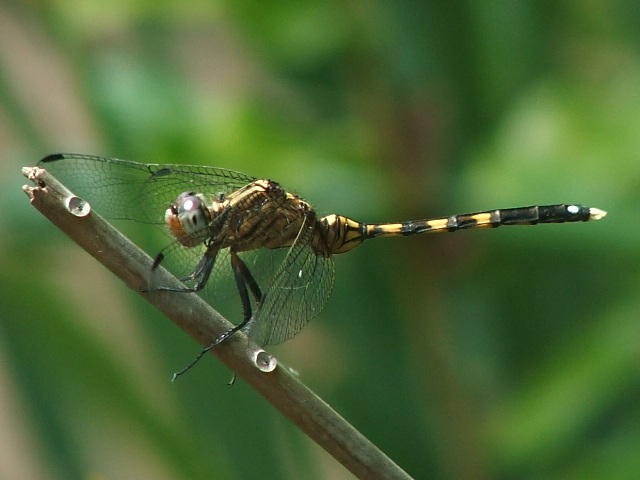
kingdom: Animalia
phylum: Arthropoda
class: Insecta
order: Odonata
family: Libellulidae
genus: Orthetrum
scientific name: Orthetrum julia
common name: Julia skimmer
